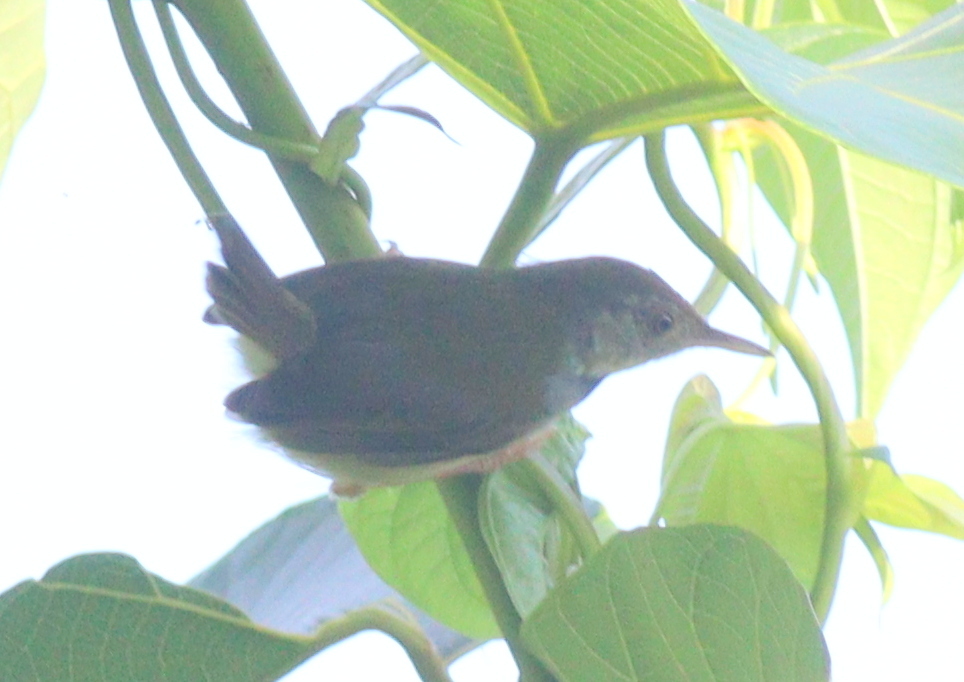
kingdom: Animalia
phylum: Chordata
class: Aves
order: Passeriformes
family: Cisticolidae
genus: Orthotomus
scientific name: Orthotomus sutorius
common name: Common tailorbird
